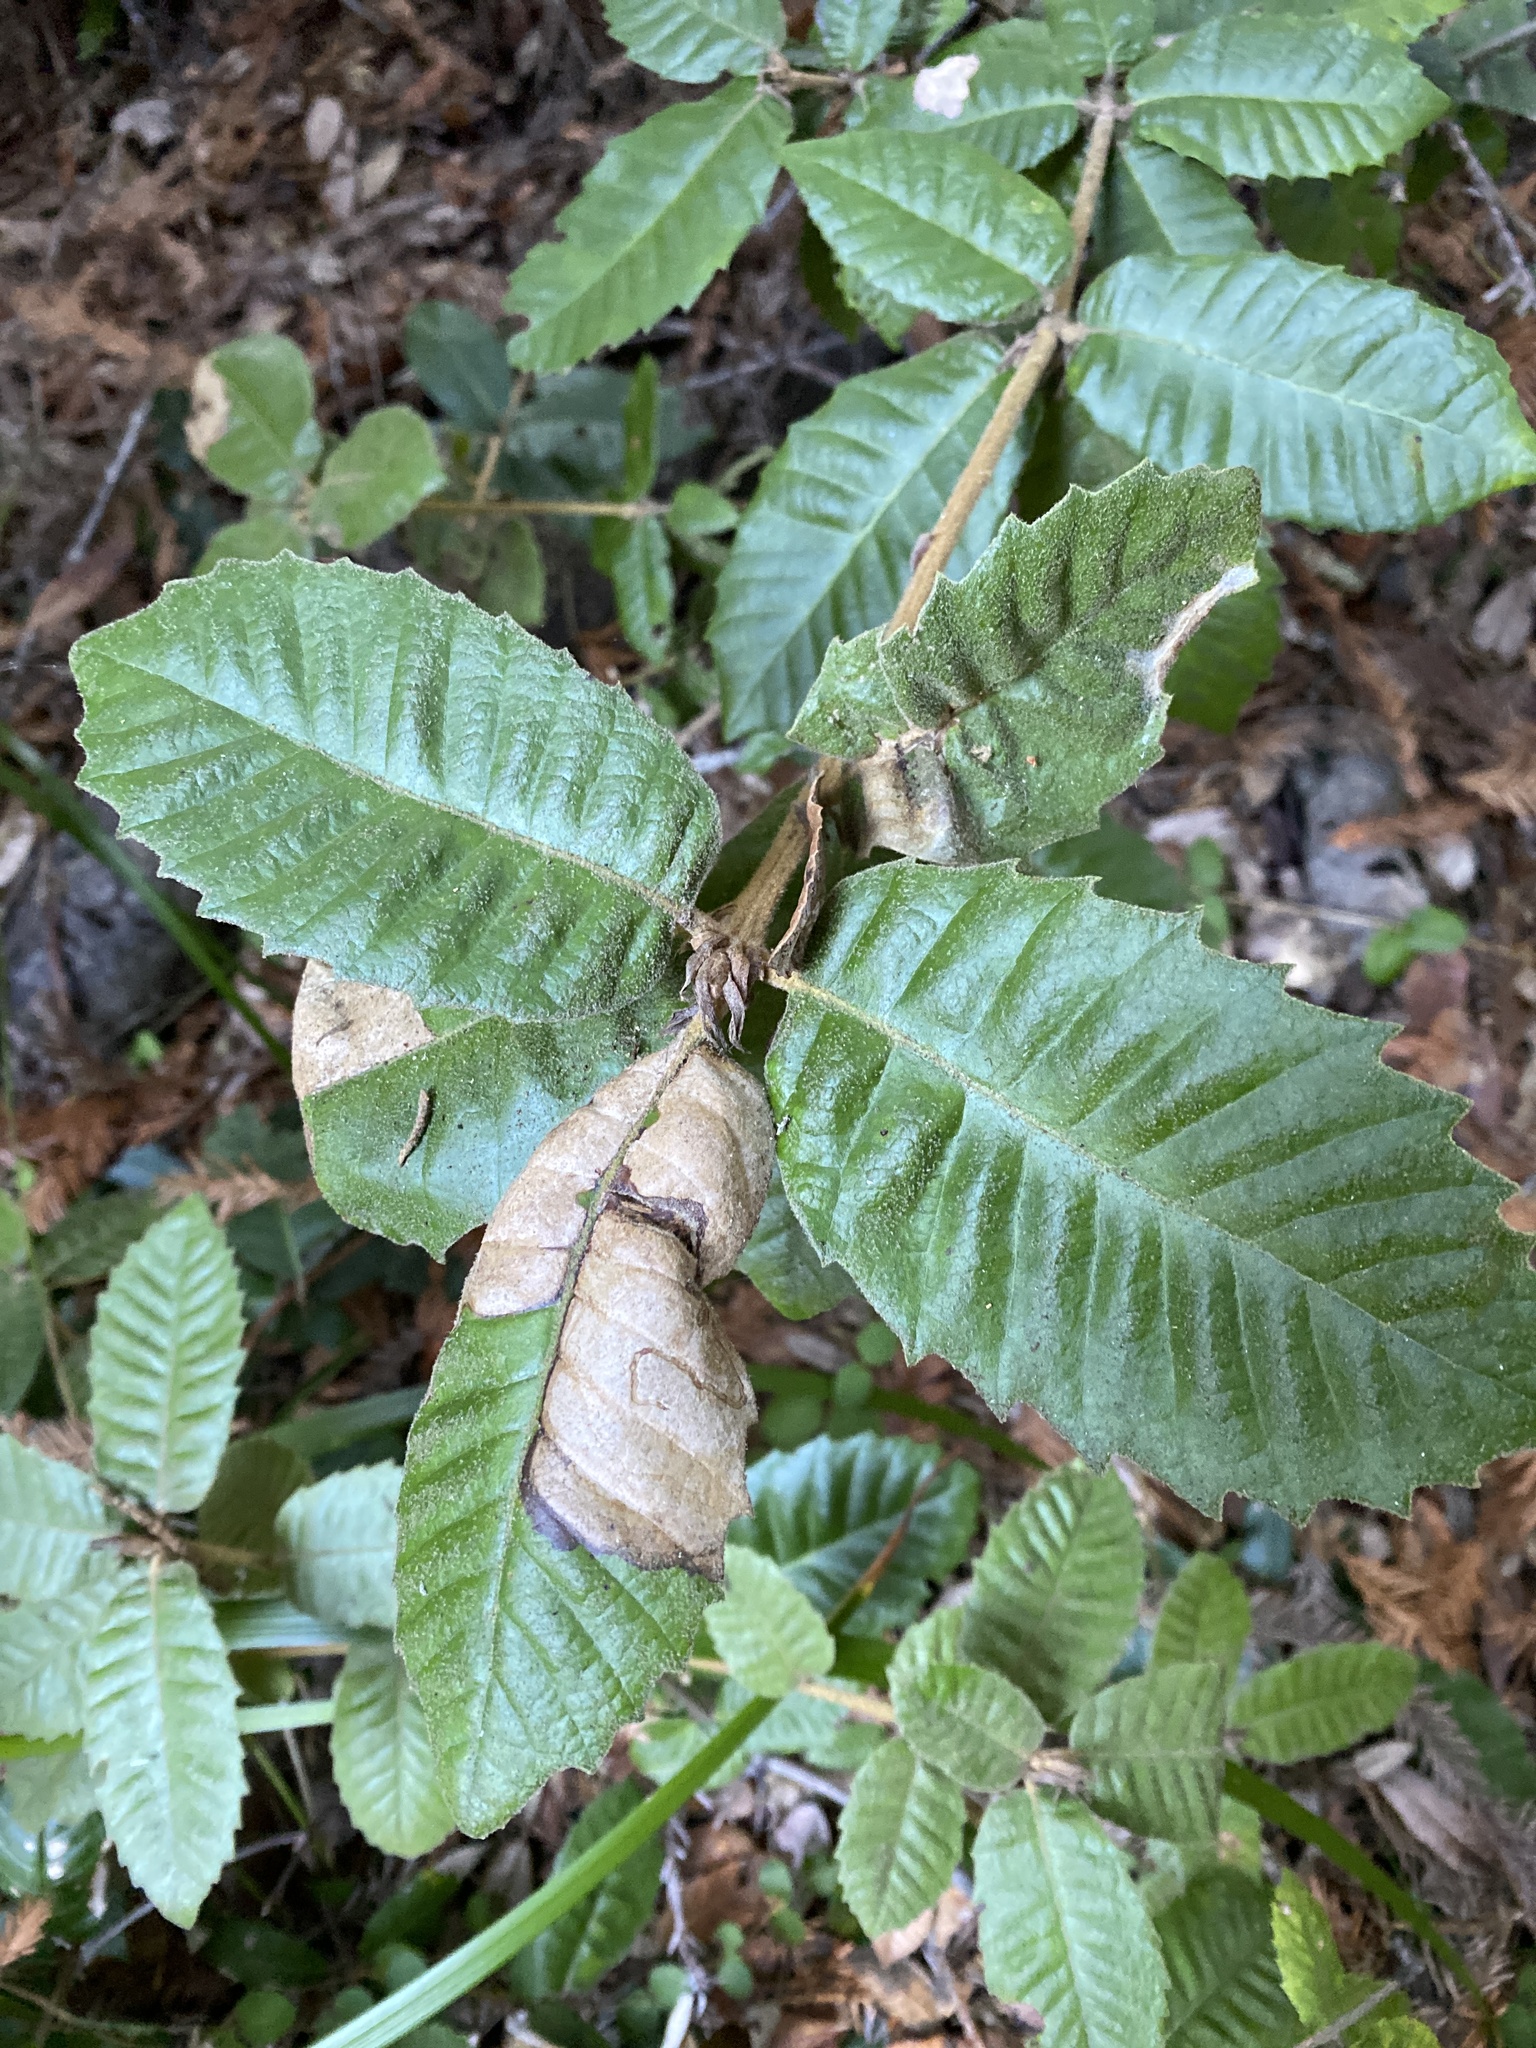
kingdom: Plantae
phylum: Tracheophyta
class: Magnoliopsida
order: Fagales
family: Fagaceae
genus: Notholithocarpus
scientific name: Notholithocarpus densiflorus
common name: Tan bark oak
